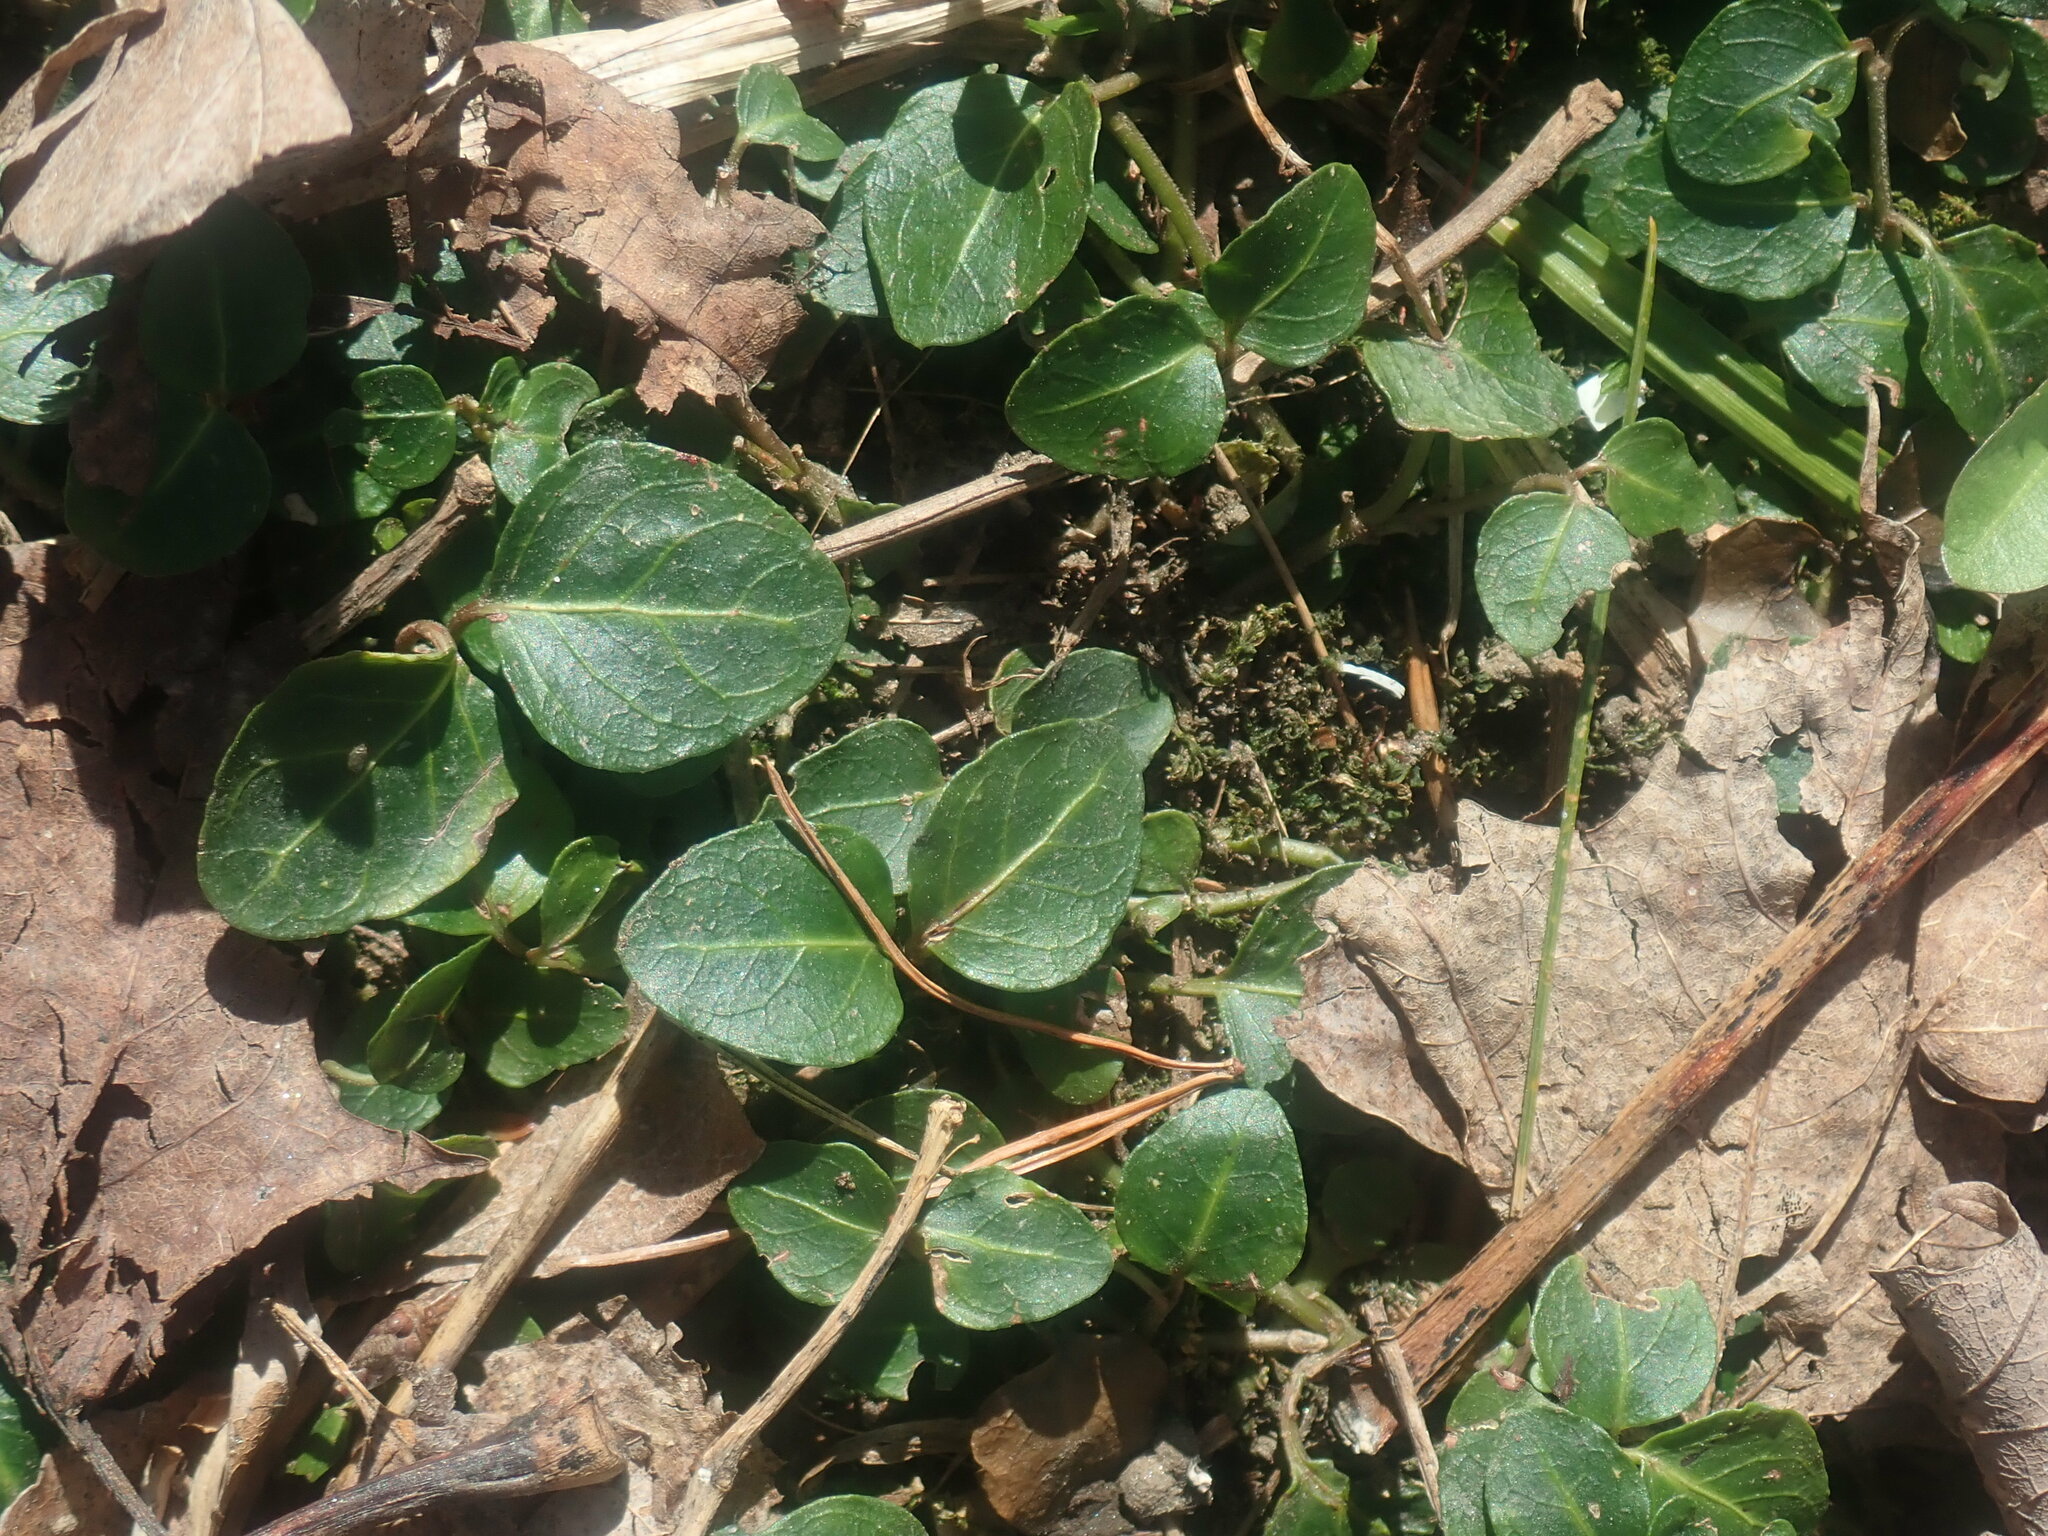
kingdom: Plantae
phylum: Tracheophyta
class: Magnoliopsida
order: Gentianales
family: Rubiaceae
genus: Mitchella
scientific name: Mitchella repens
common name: Partridge-berry
